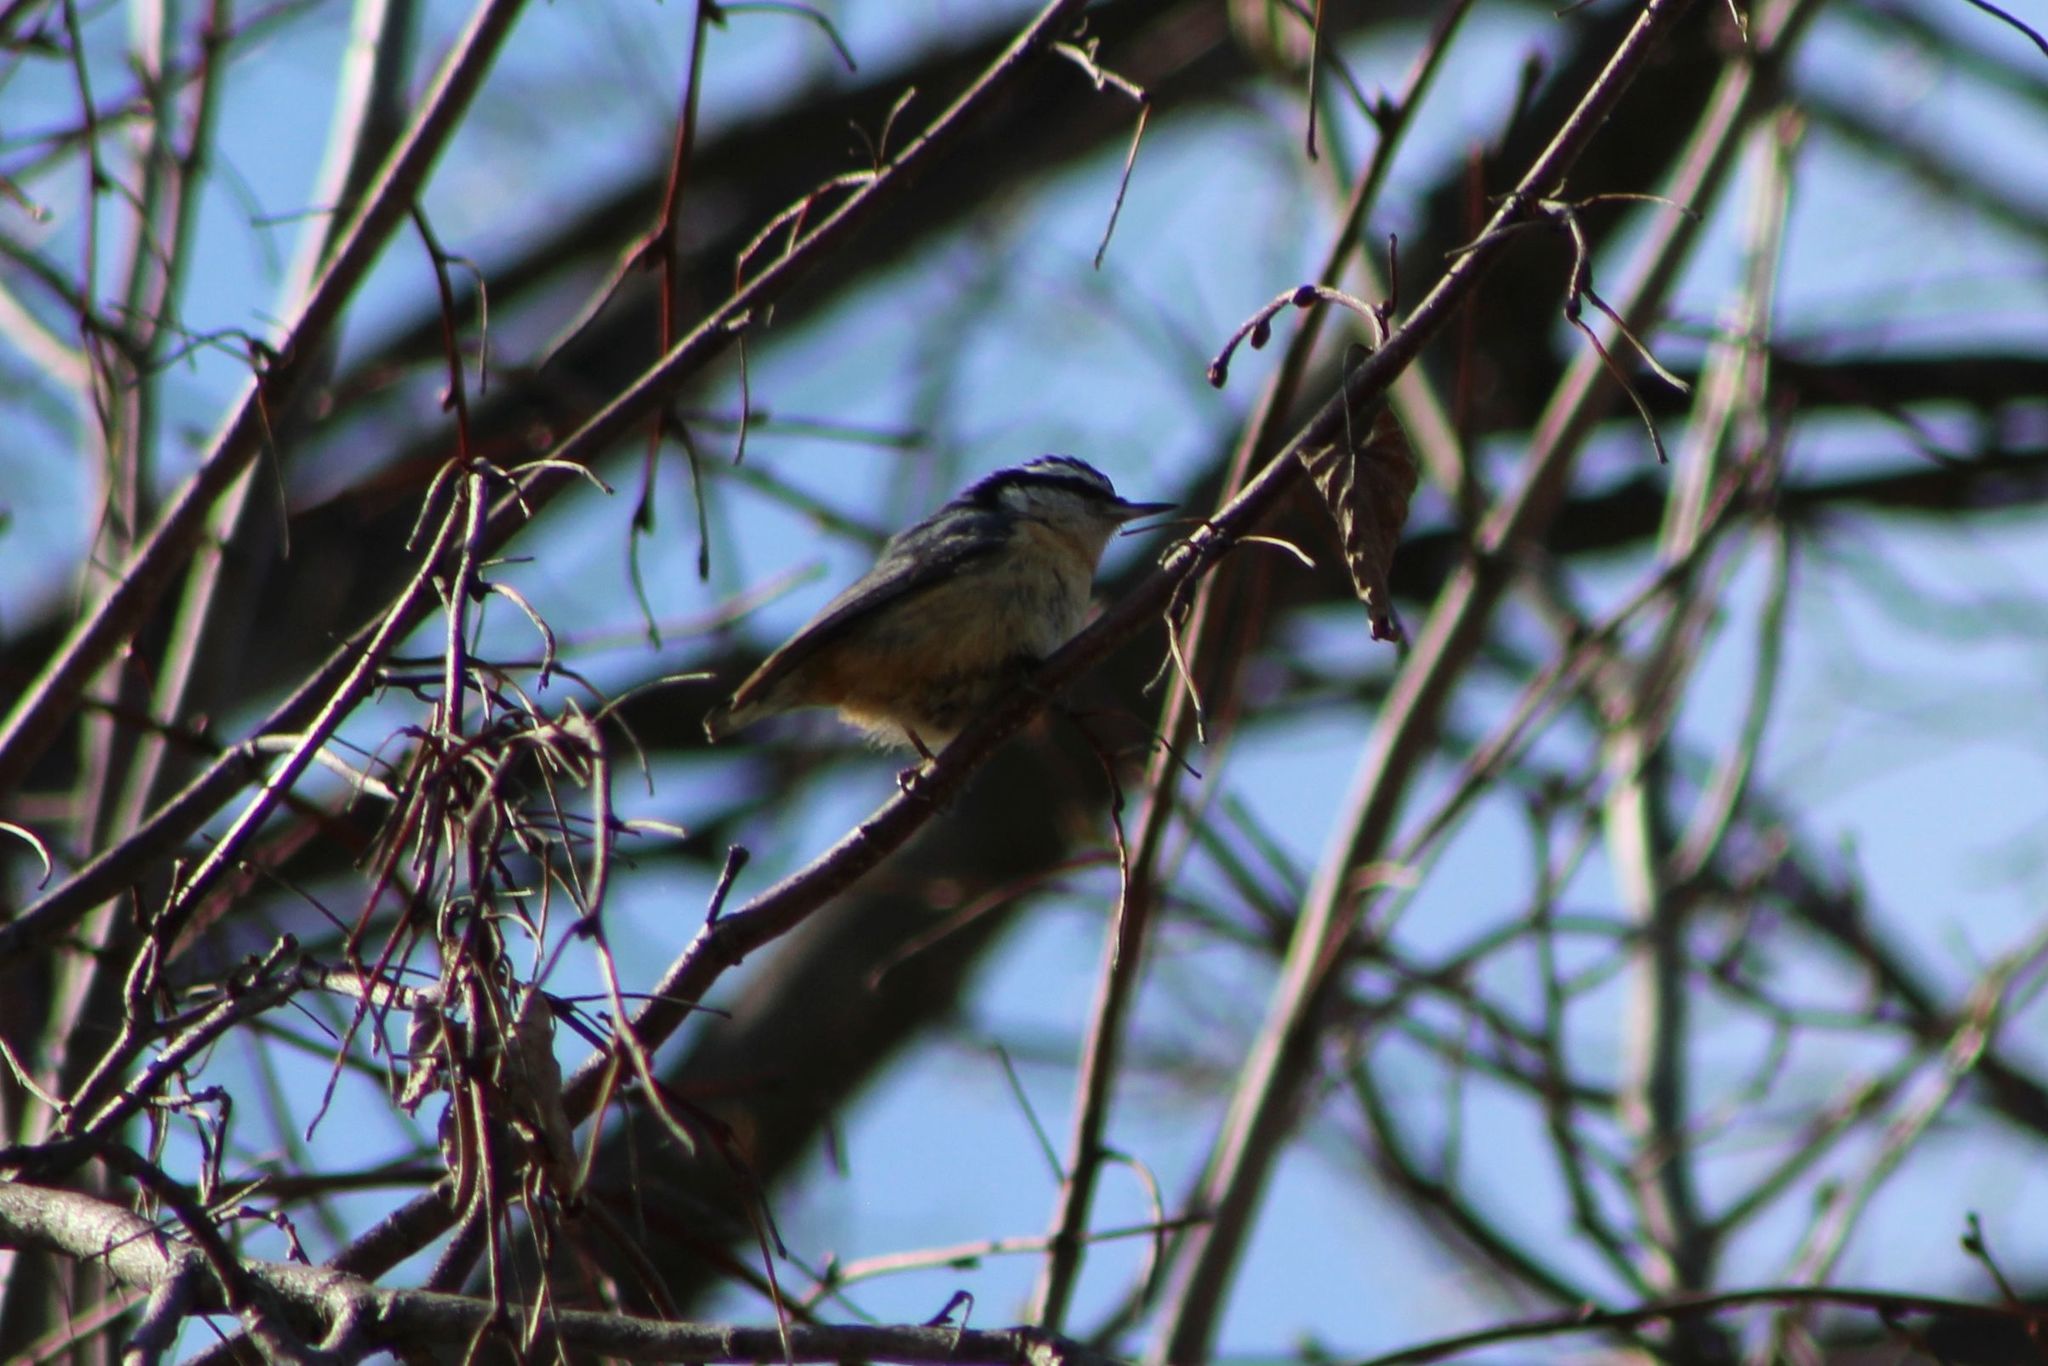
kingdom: Animalia
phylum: Chordata
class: Aves
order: Passeriformes
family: Sittidae
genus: Sitta
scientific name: Sitta canadensis
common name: Red-breasted nuthatch
